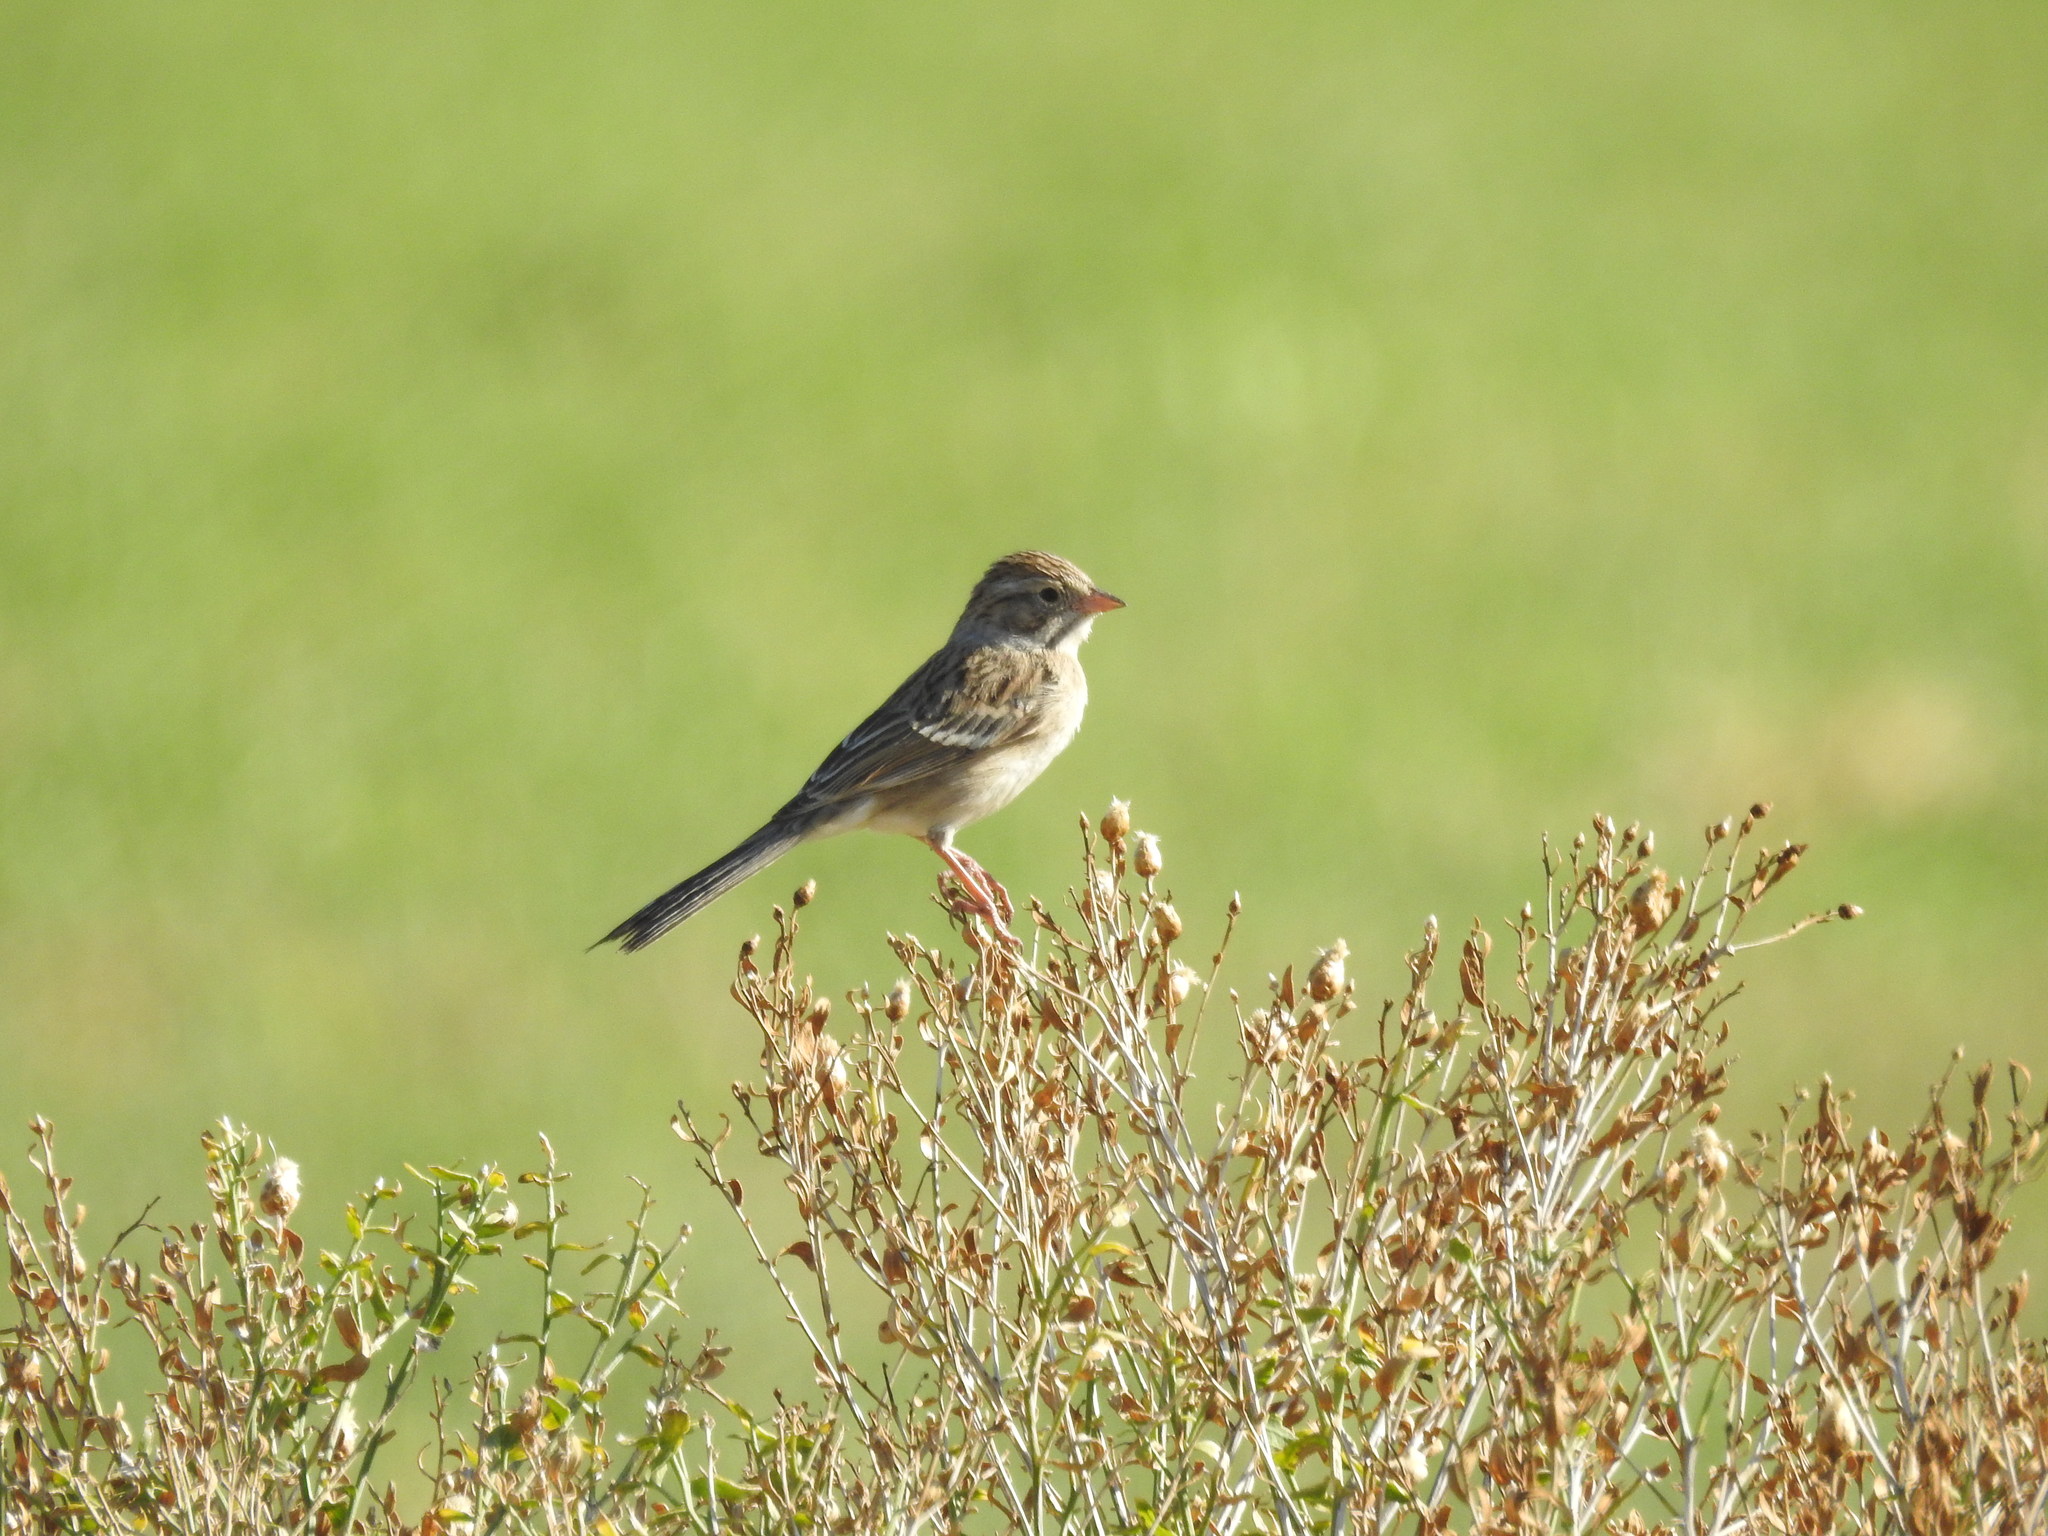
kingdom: Animalia
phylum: Chordata
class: Aves
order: Passeriformes
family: Passerellidae
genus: Spizella
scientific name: Spizella breweri
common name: Brewer's sparrow
